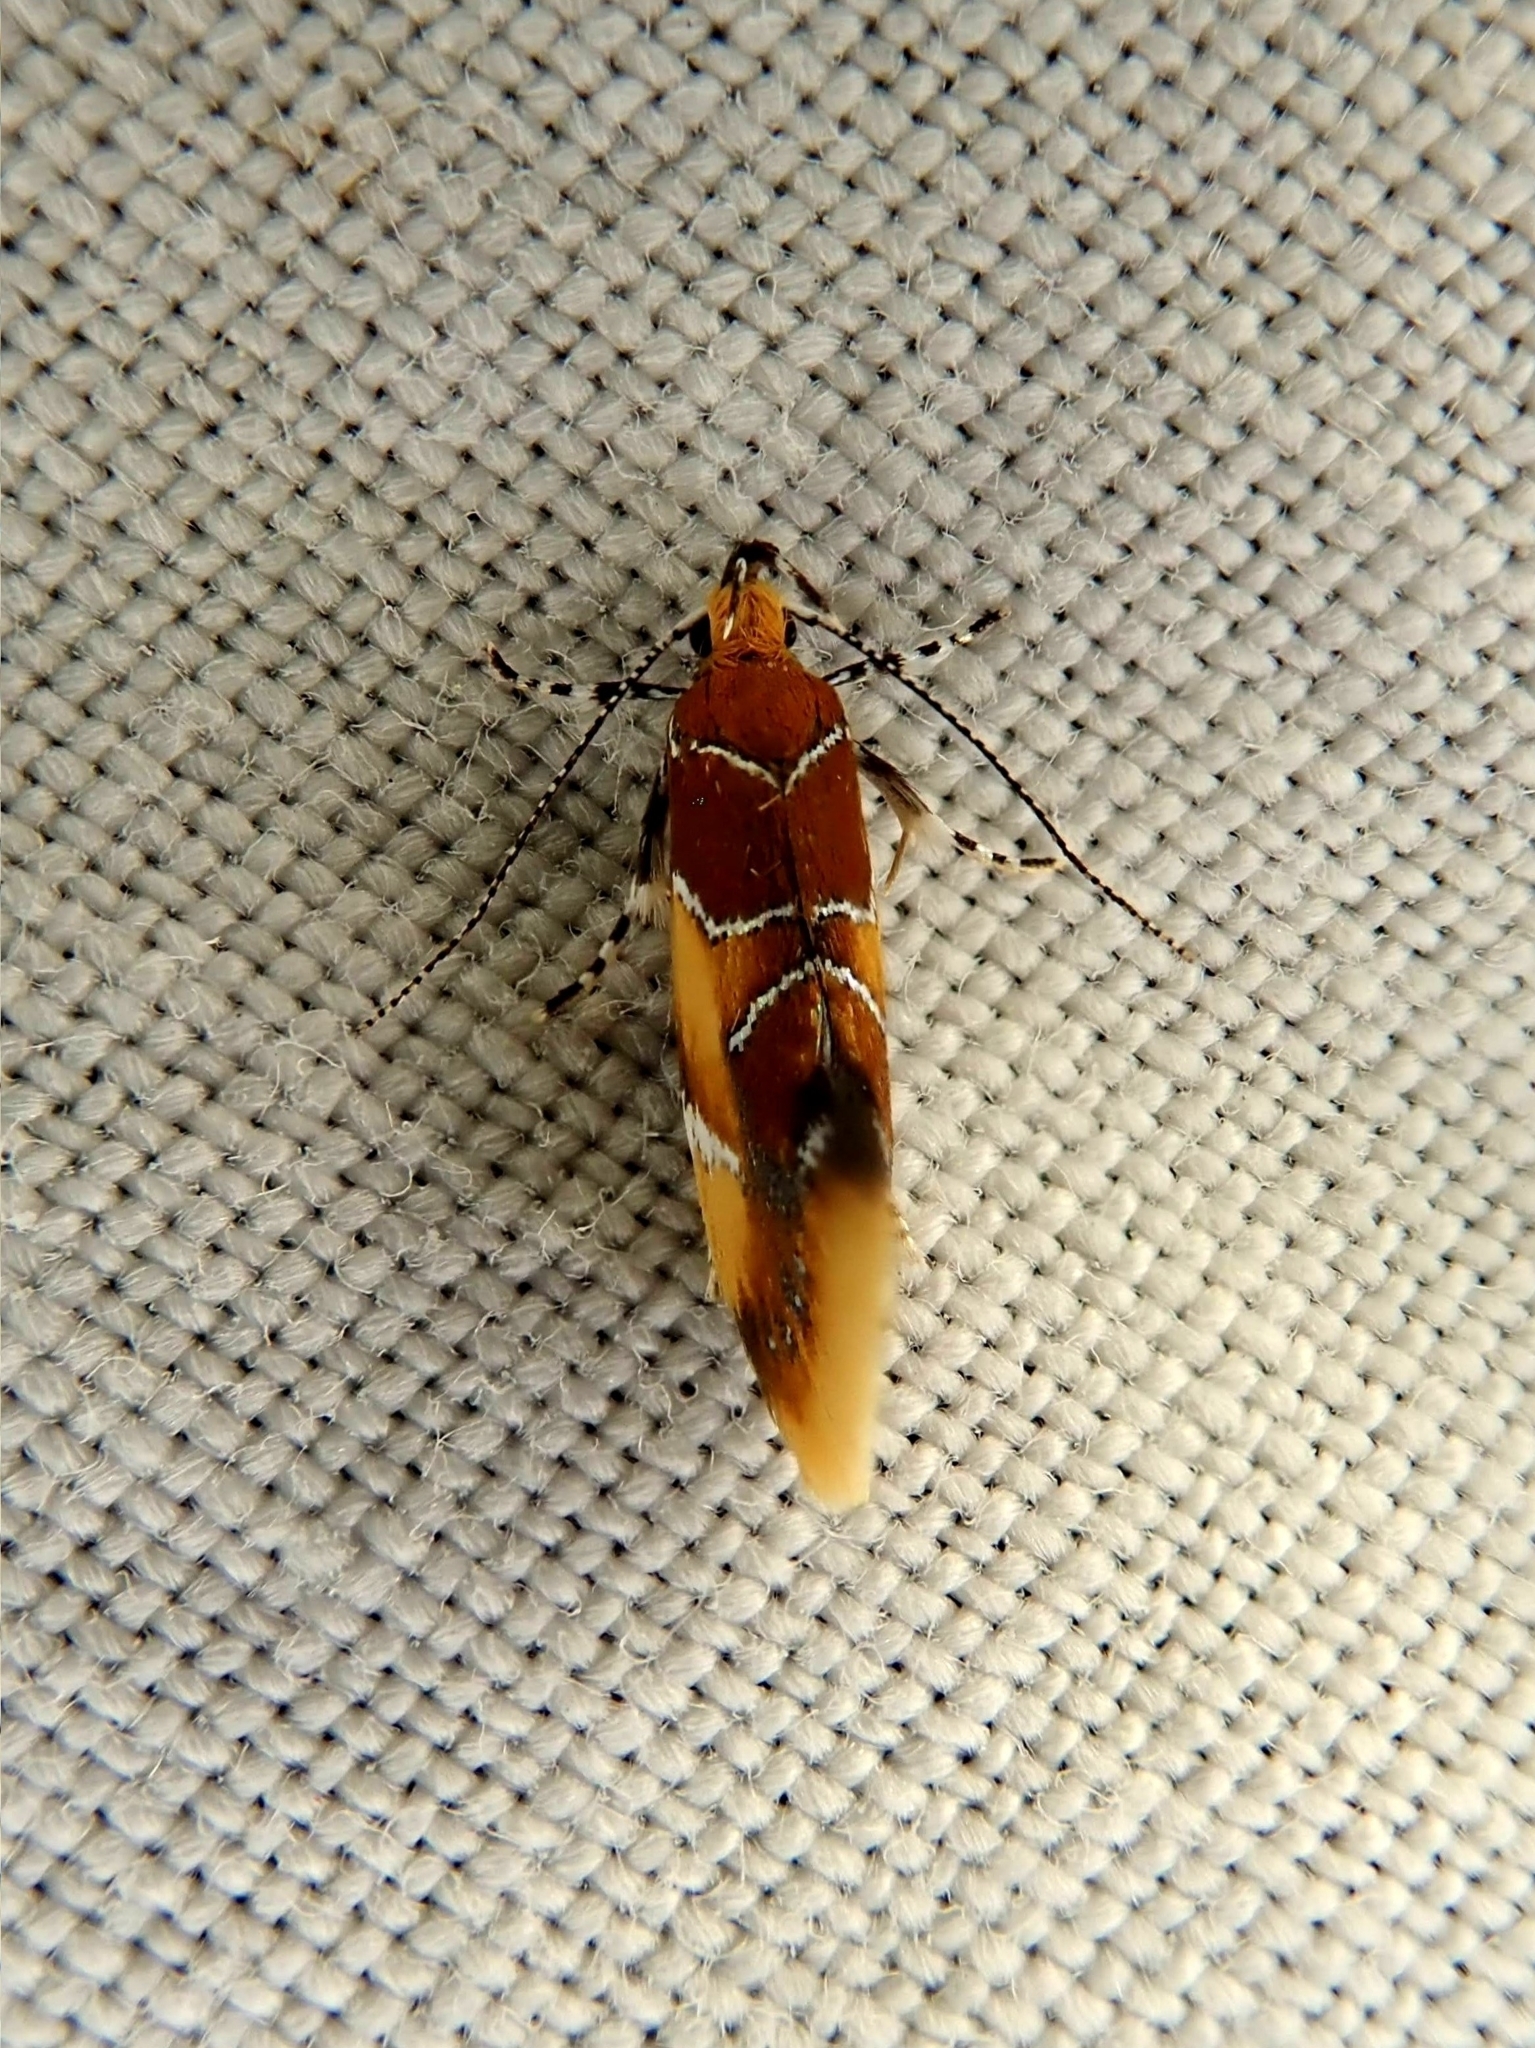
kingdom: Animalia
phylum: Arthropoda
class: Insecta
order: Lepidoptera
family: Oecophoridae
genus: Callima
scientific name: Callima argenticinctella
